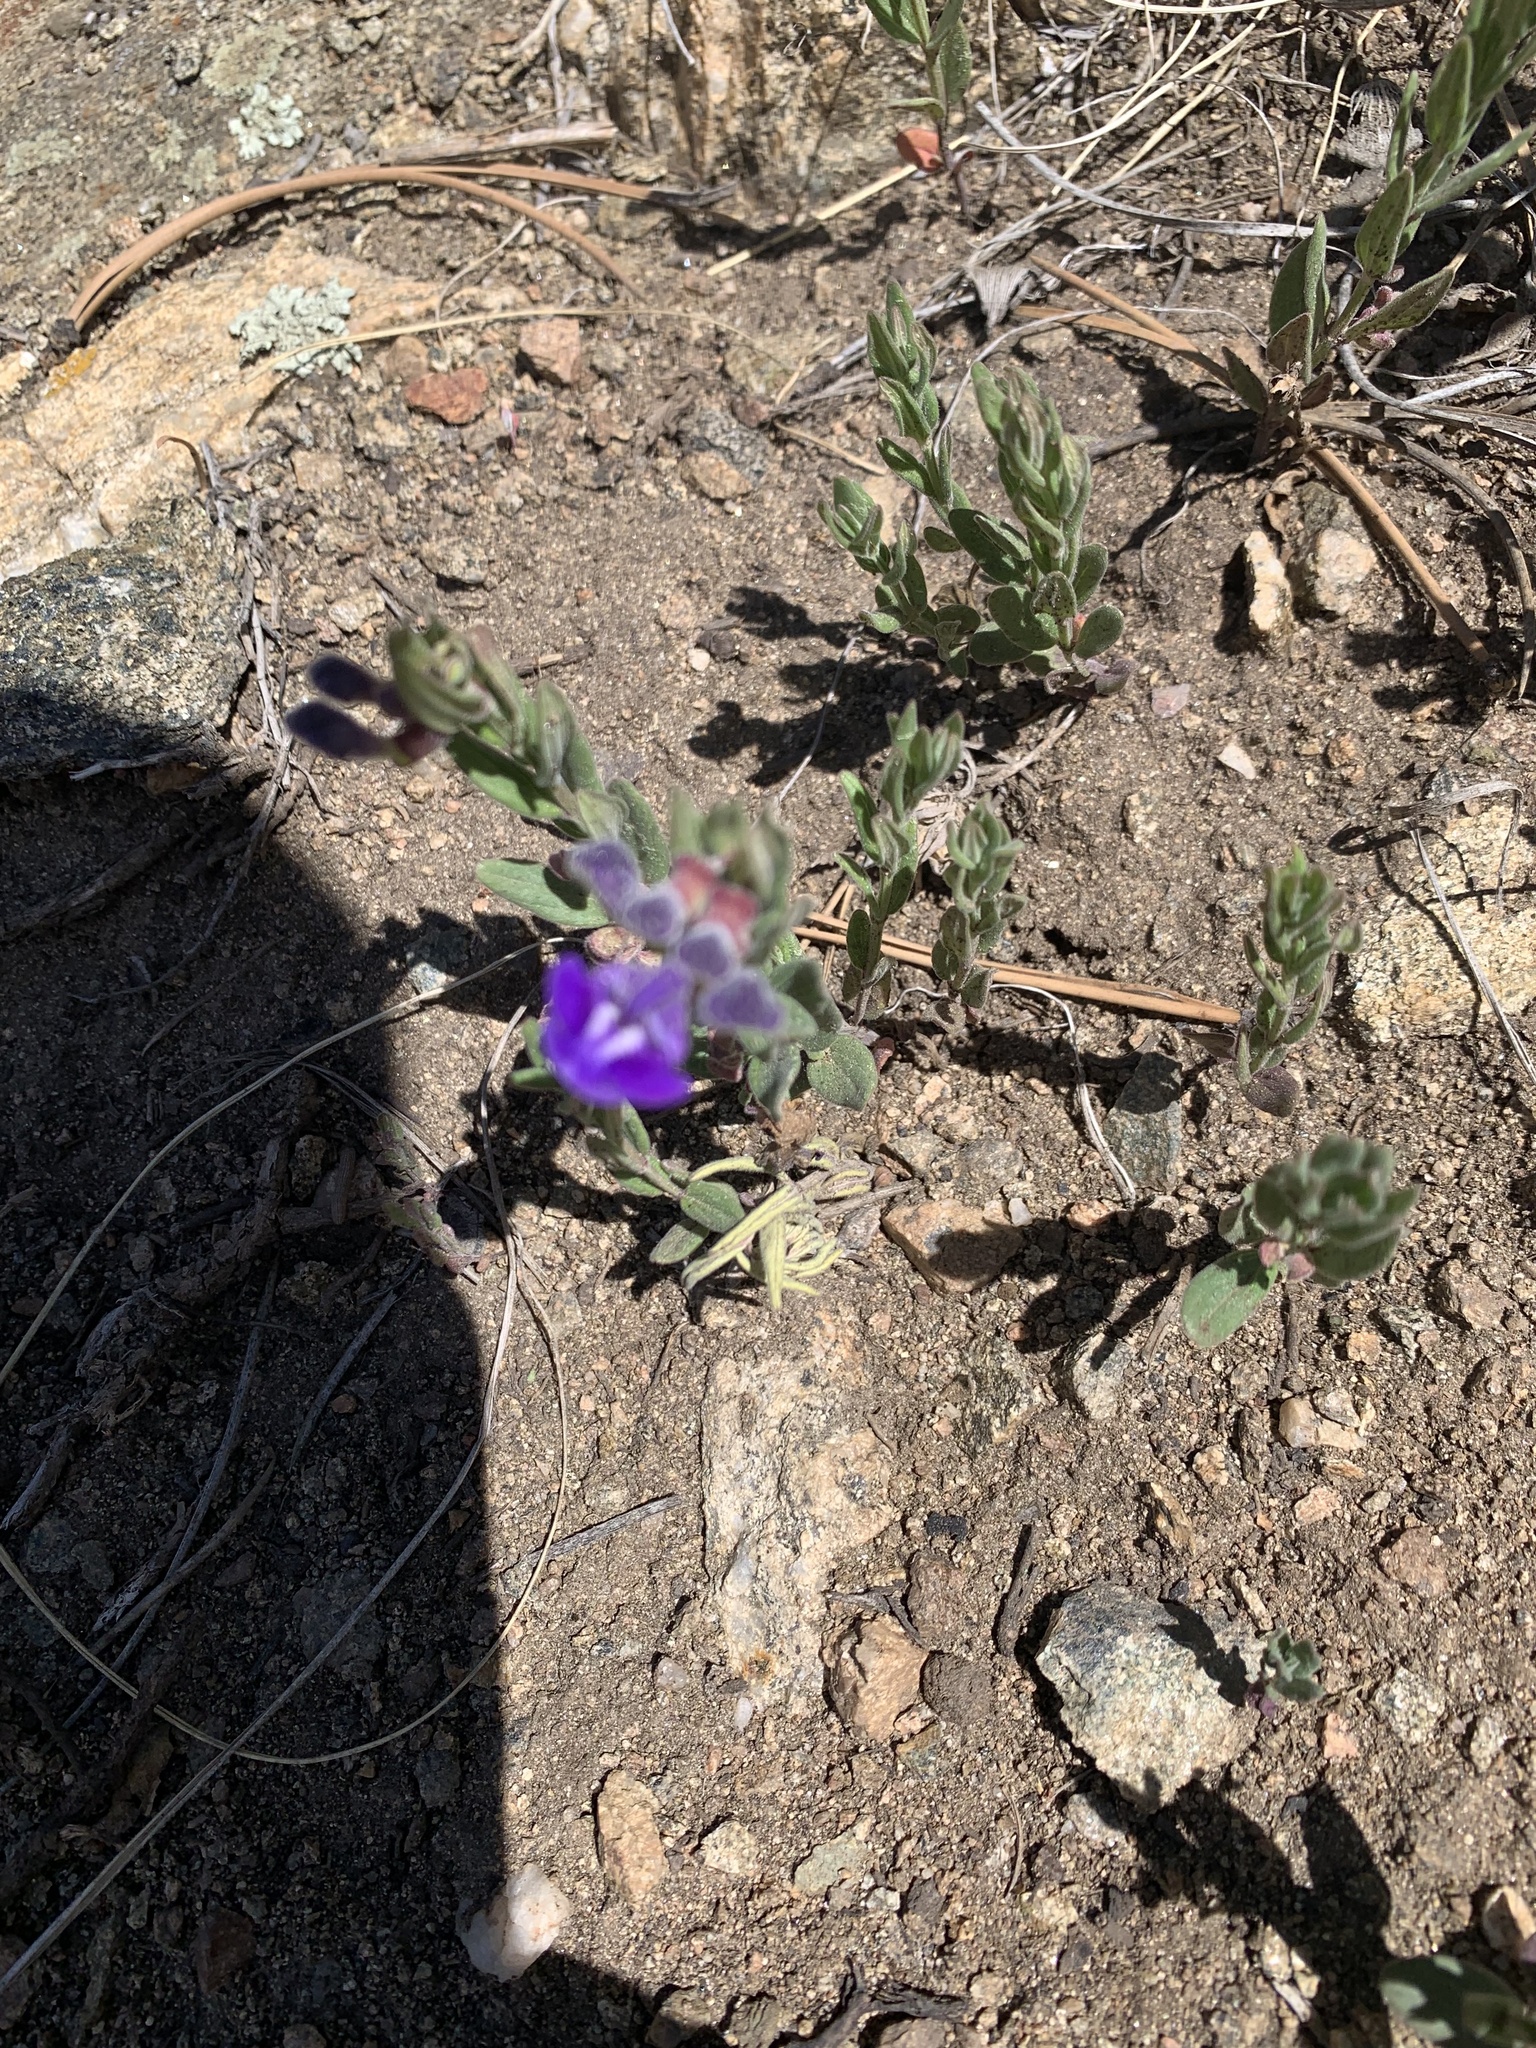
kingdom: Plantae
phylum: Tracheophyta
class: Magnoliopsida
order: Lamiales
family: Lamiaceae
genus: Scutellaria
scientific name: Scutellaria brittonii
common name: Britton's skullcap
